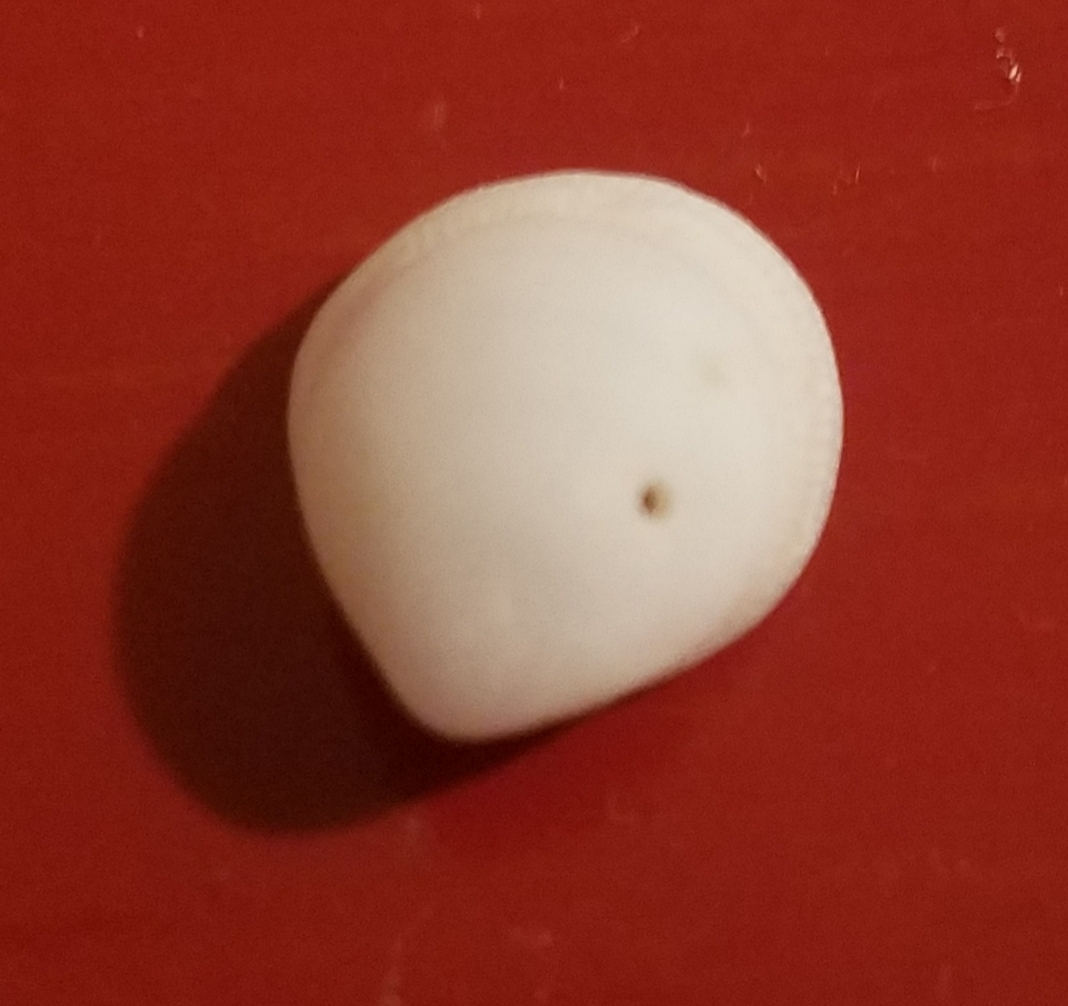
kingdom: Animalia
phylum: Mollusca
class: Bivalvia
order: Arcida
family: Glycymerididae
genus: Glycymeris
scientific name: Glycymeris septentrionalis
